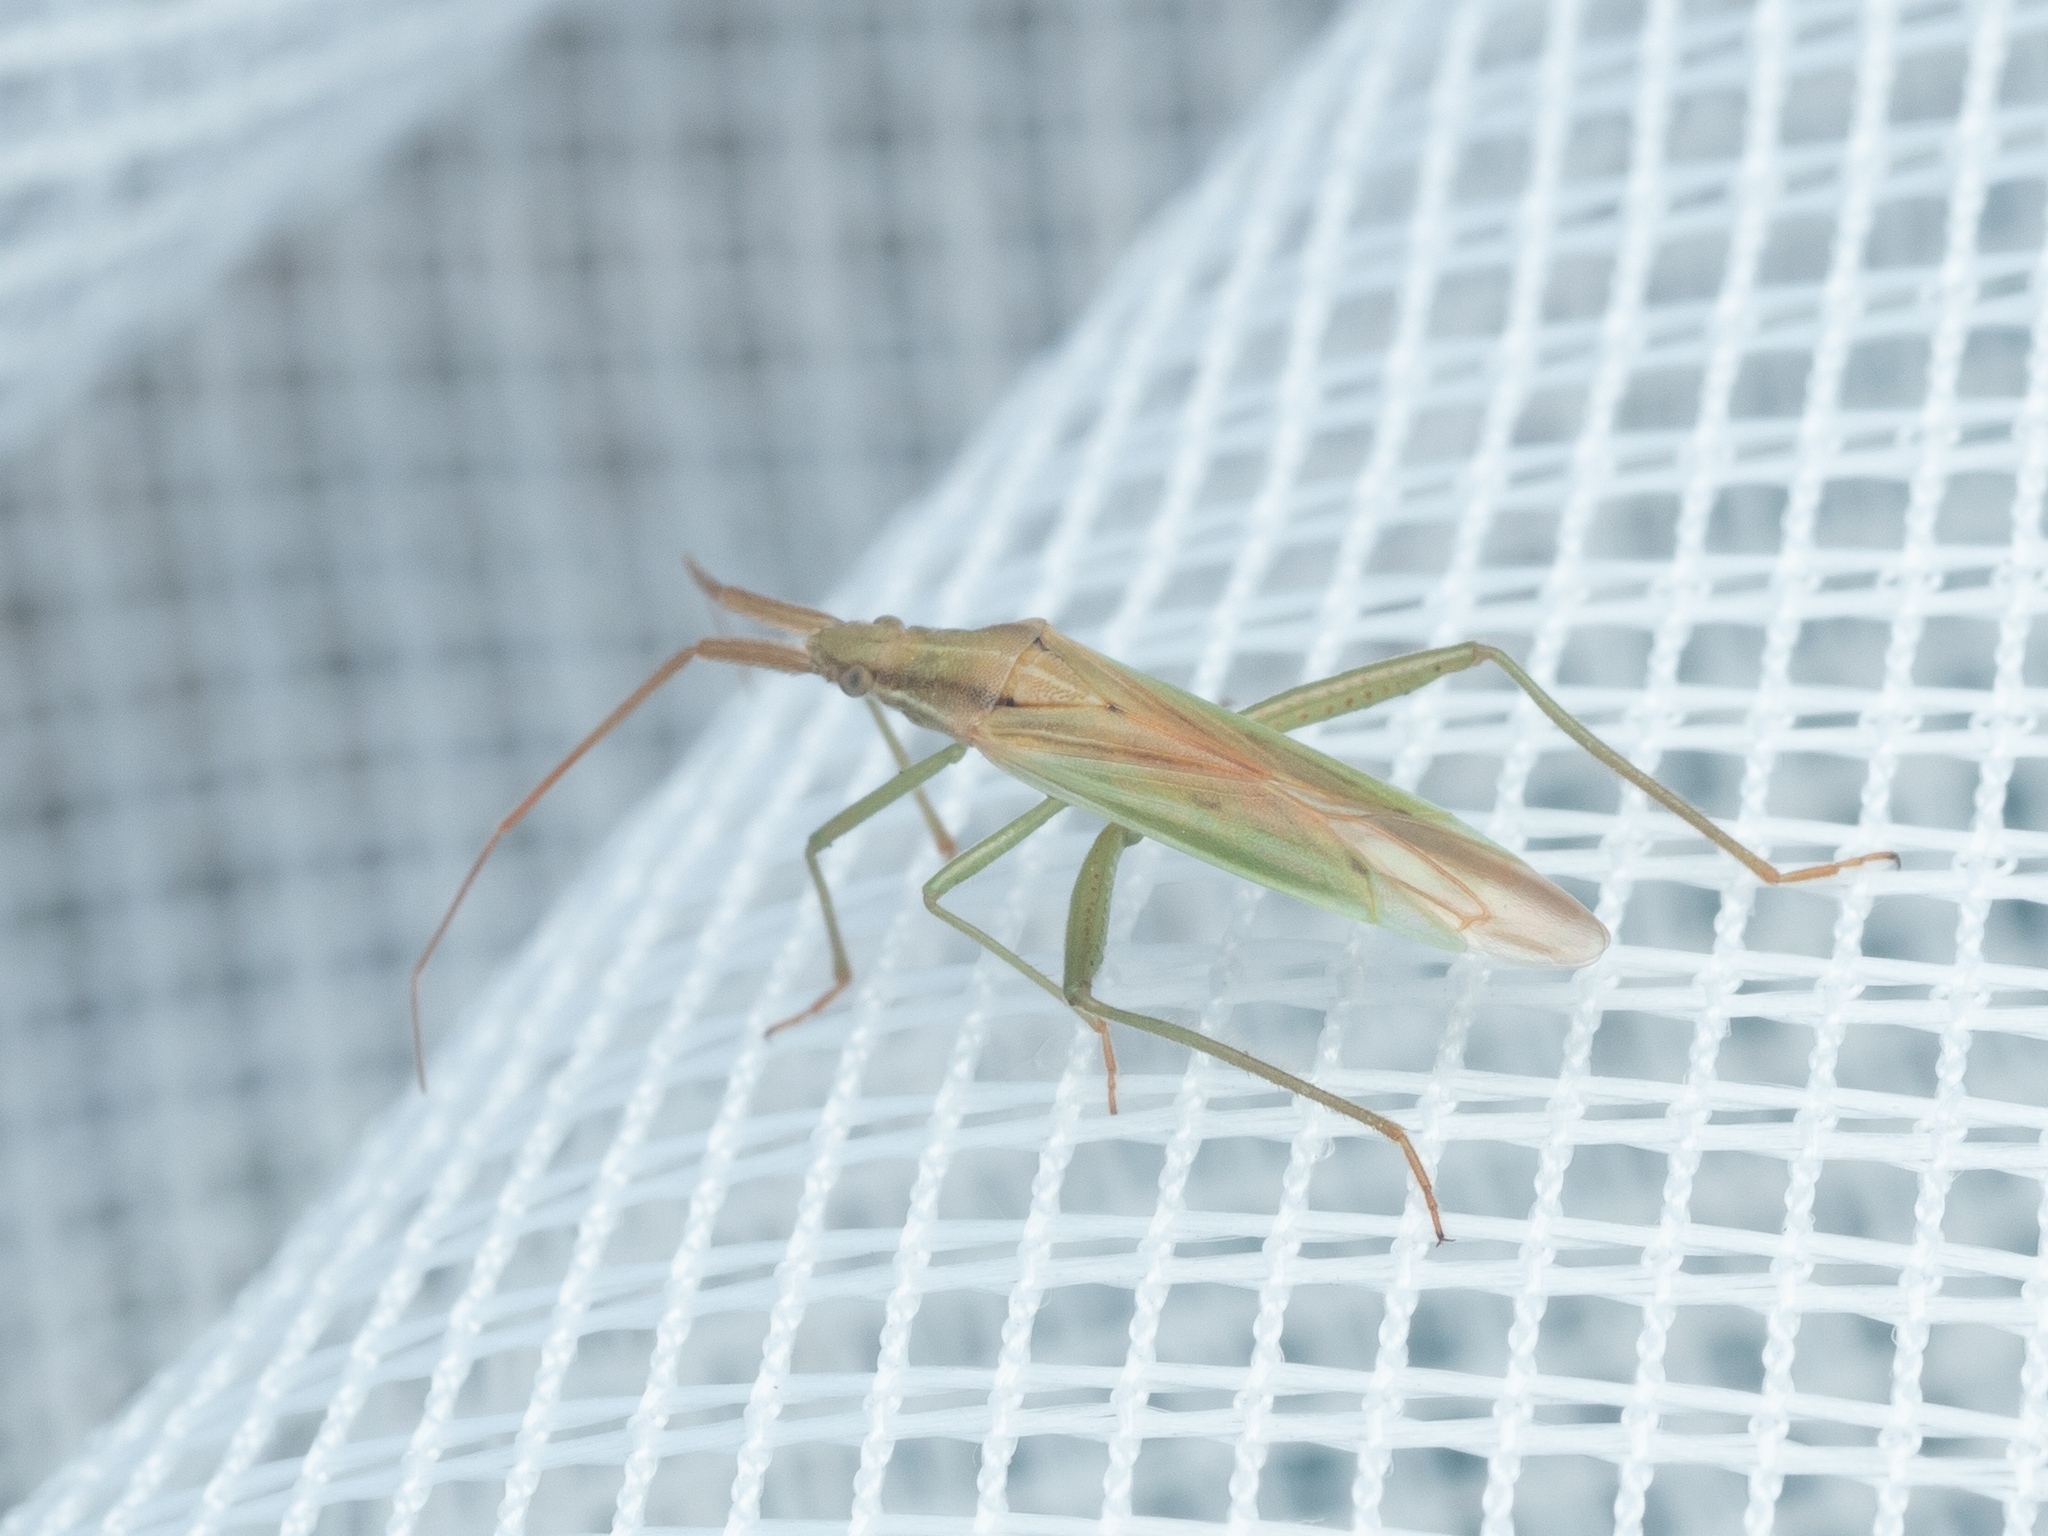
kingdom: Animalia
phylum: Arthropoda
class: Insecta
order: Hemiptera
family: Miridae
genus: Stenodema
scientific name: Stenodema laevigata
